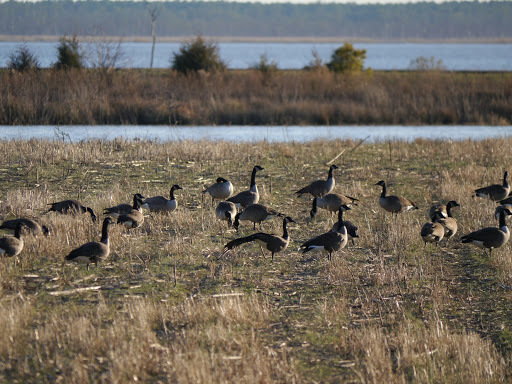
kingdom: Animalia
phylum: Chordata
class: Aves
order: Anseriformes
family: Anatidae
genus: Branta
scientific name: Branta canadensis
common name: Canada goose
